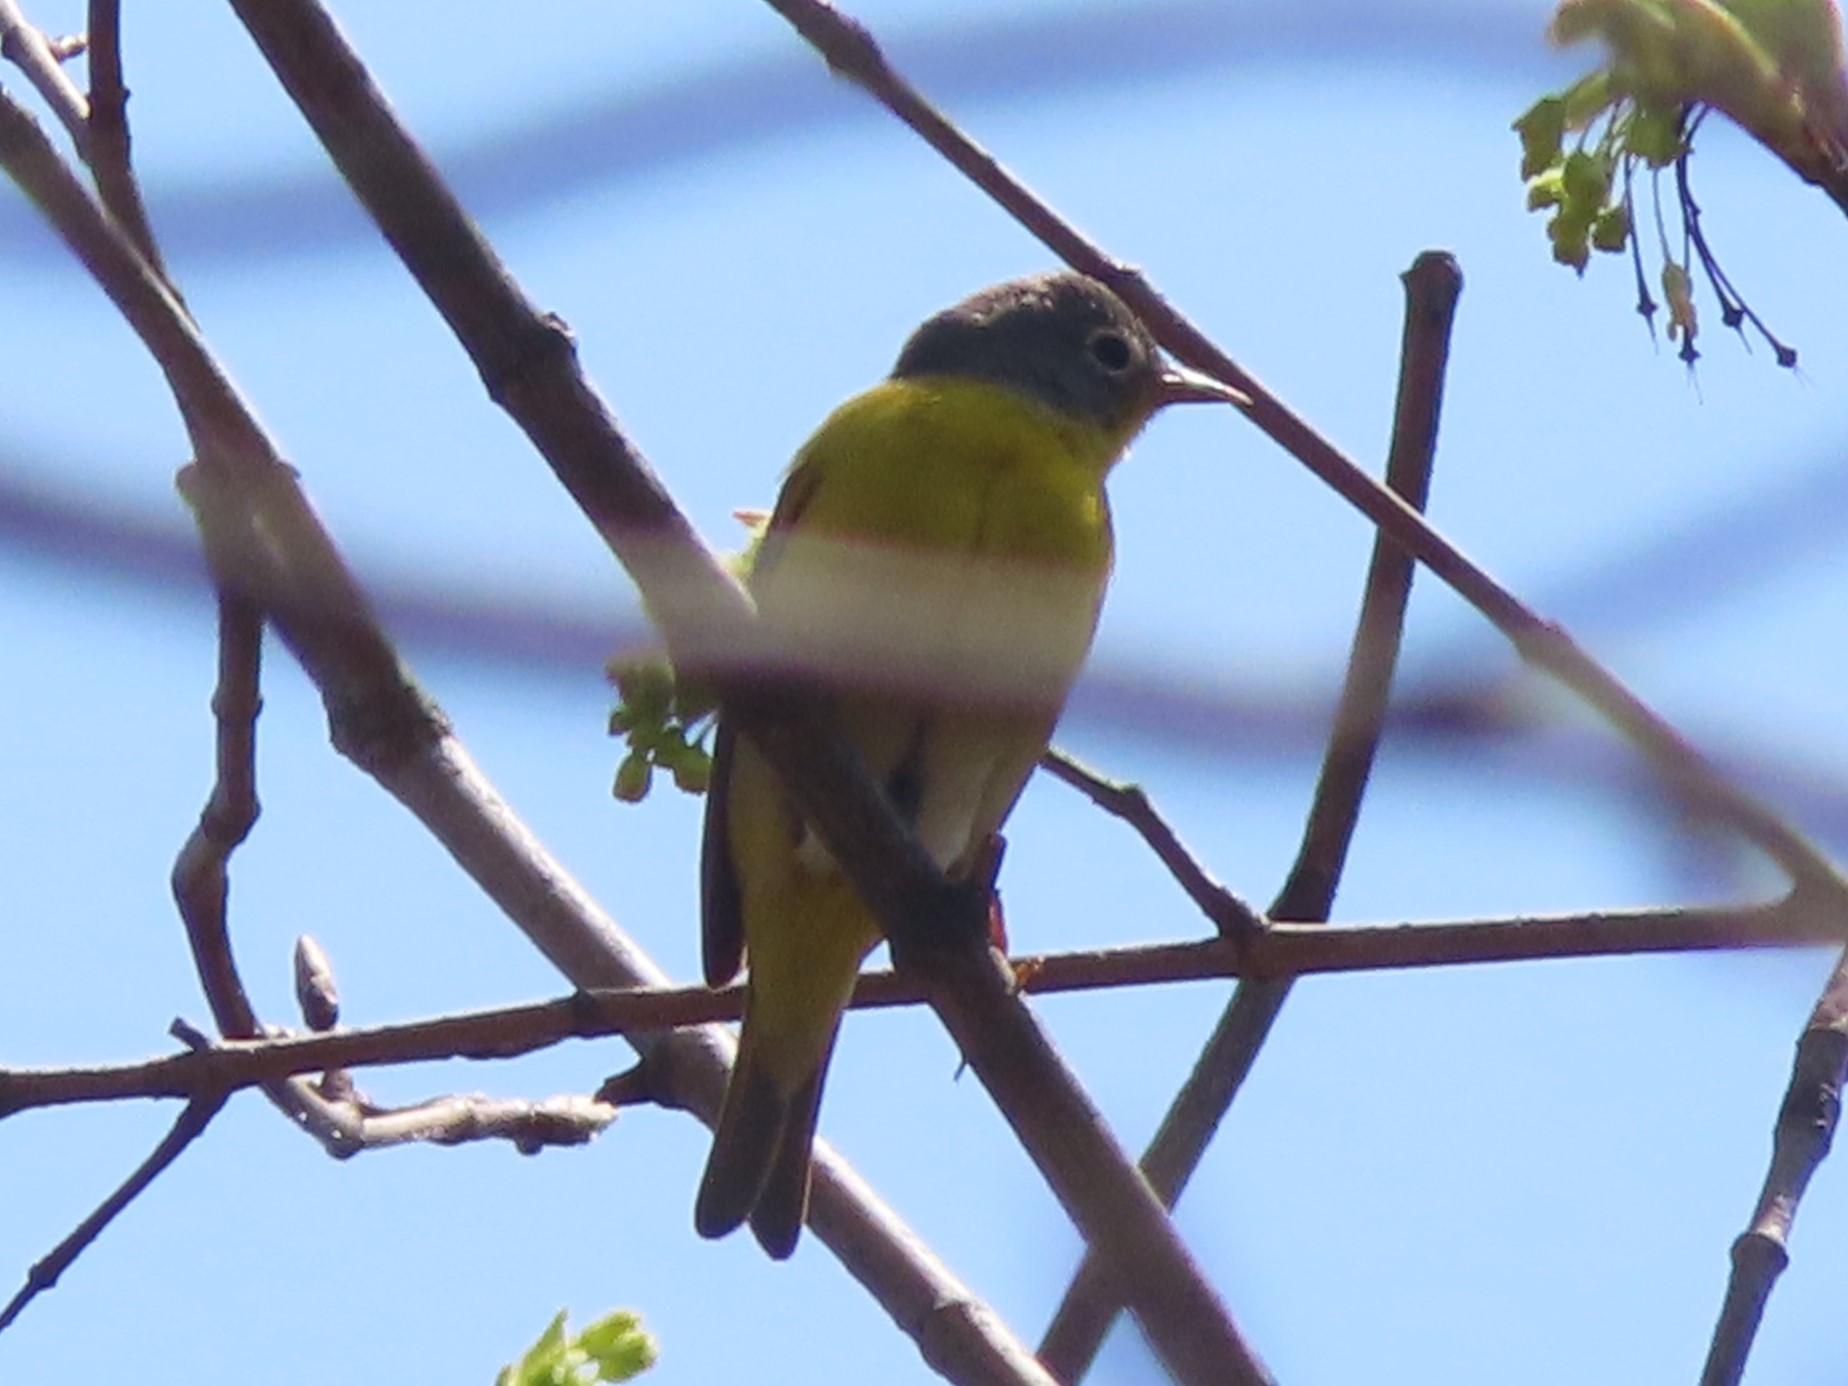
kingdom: Animalia
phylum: Chordata
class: Aves
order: Passeriformes
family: Parulidae
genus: Leiothlypis
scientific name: Leiothlypis ruficapilla
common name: Nashville warbler
